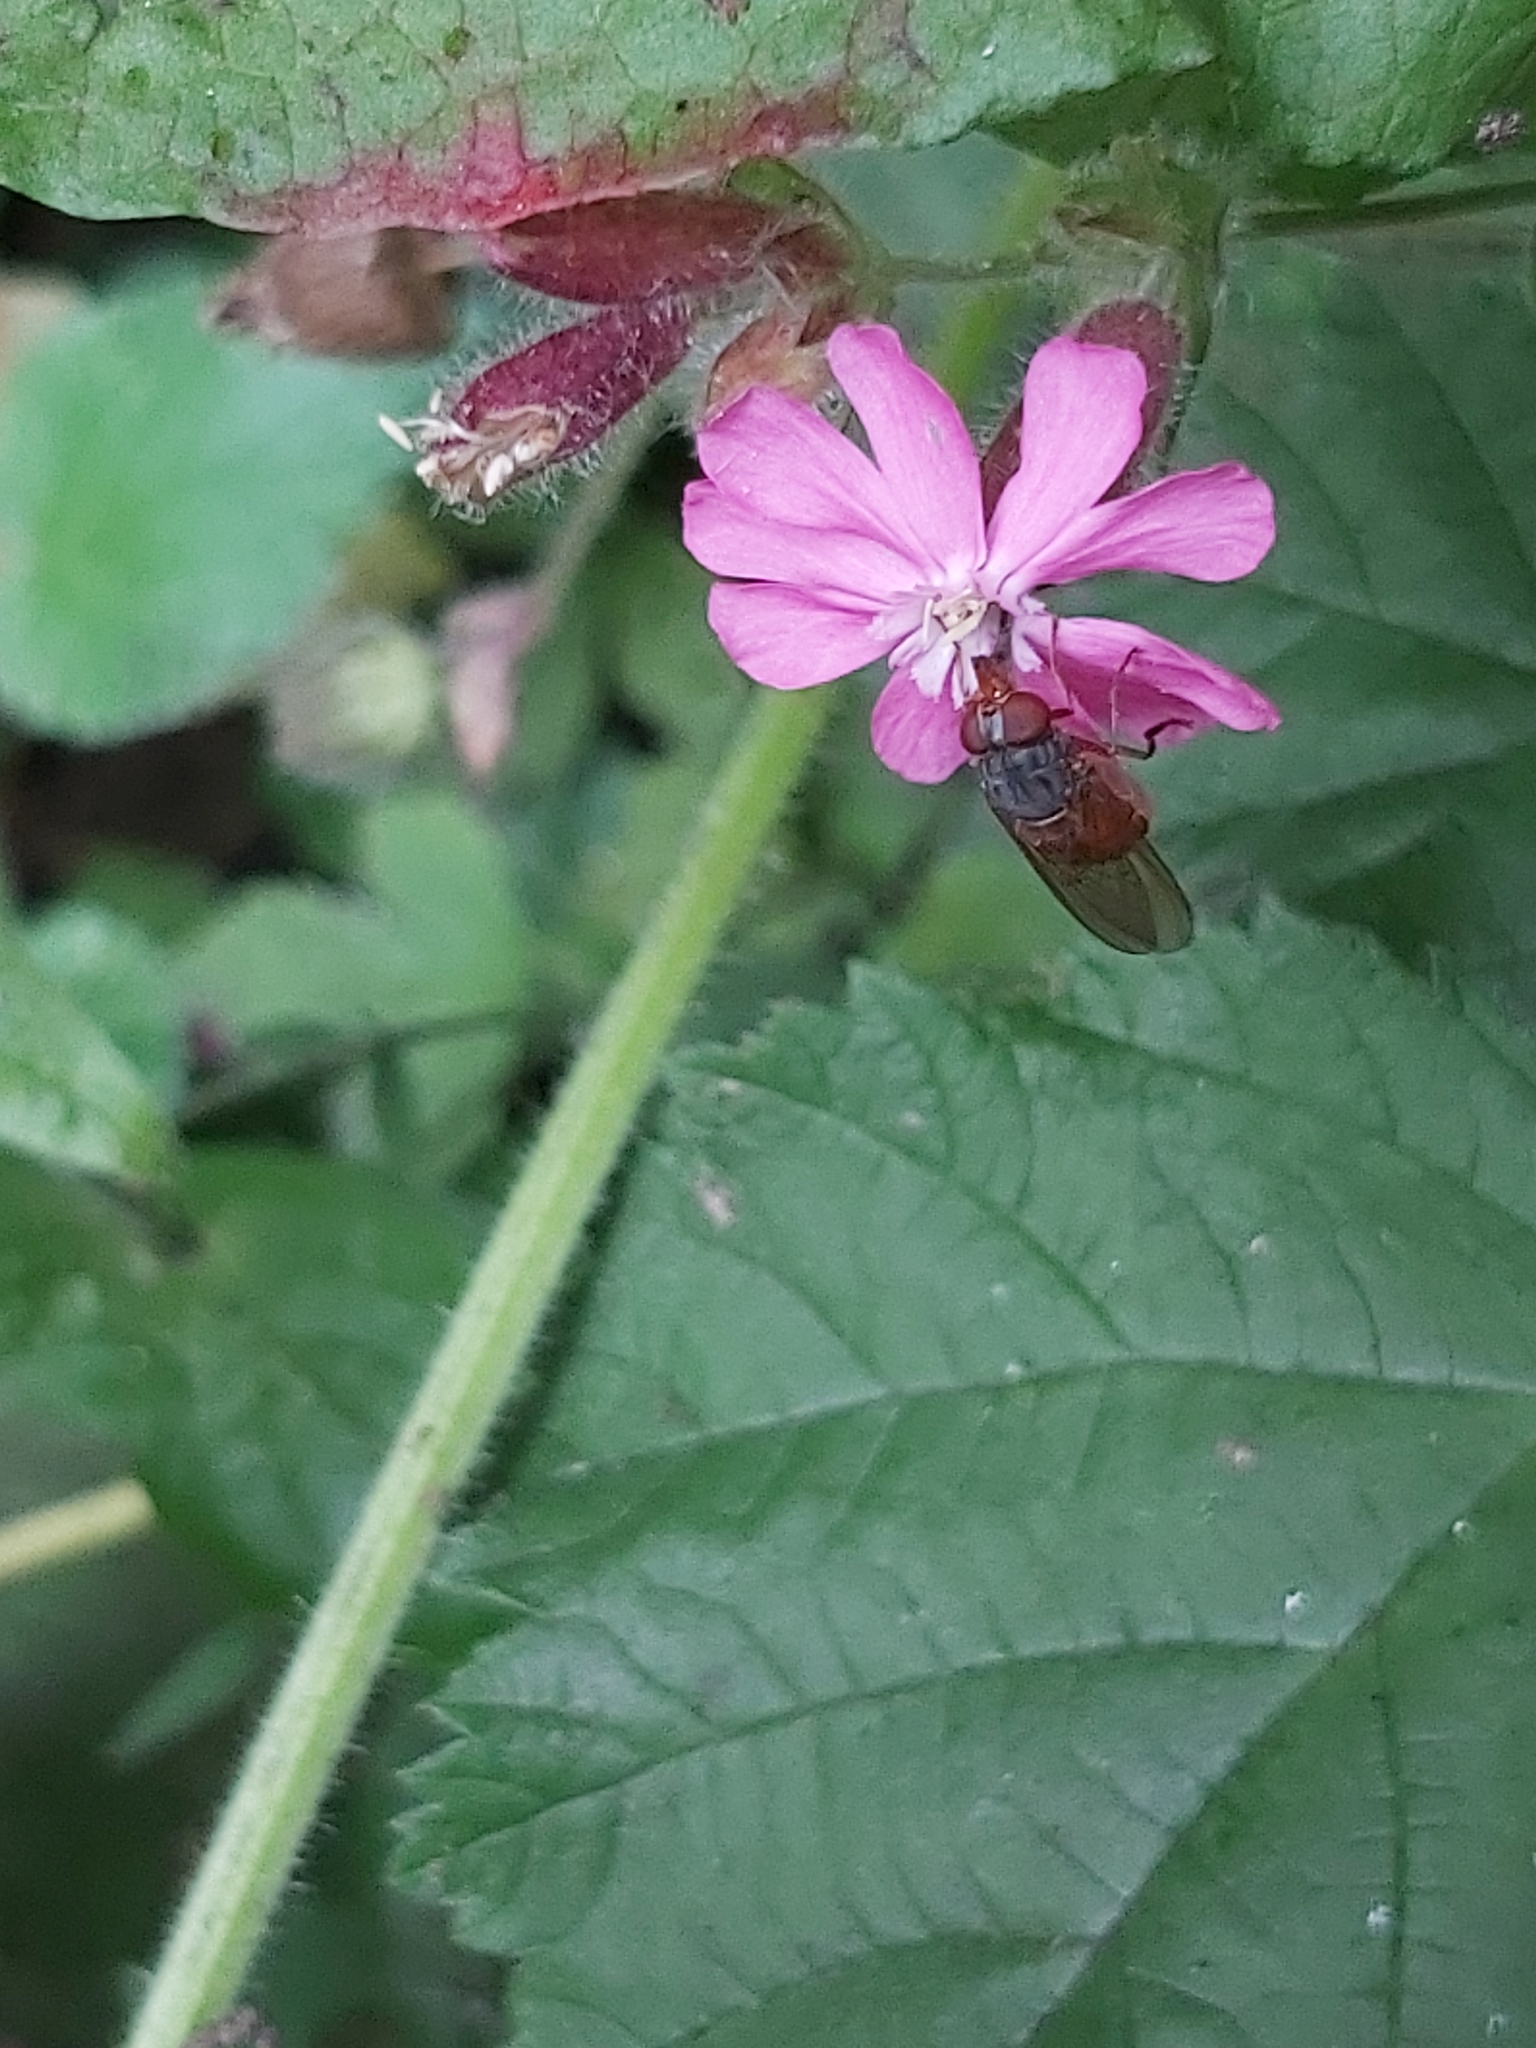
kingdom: Animalia
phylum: Arthropoda
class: Insecta
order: Diptera
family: Syrphidae
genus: Rhingia
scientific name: Rhingia campestris
